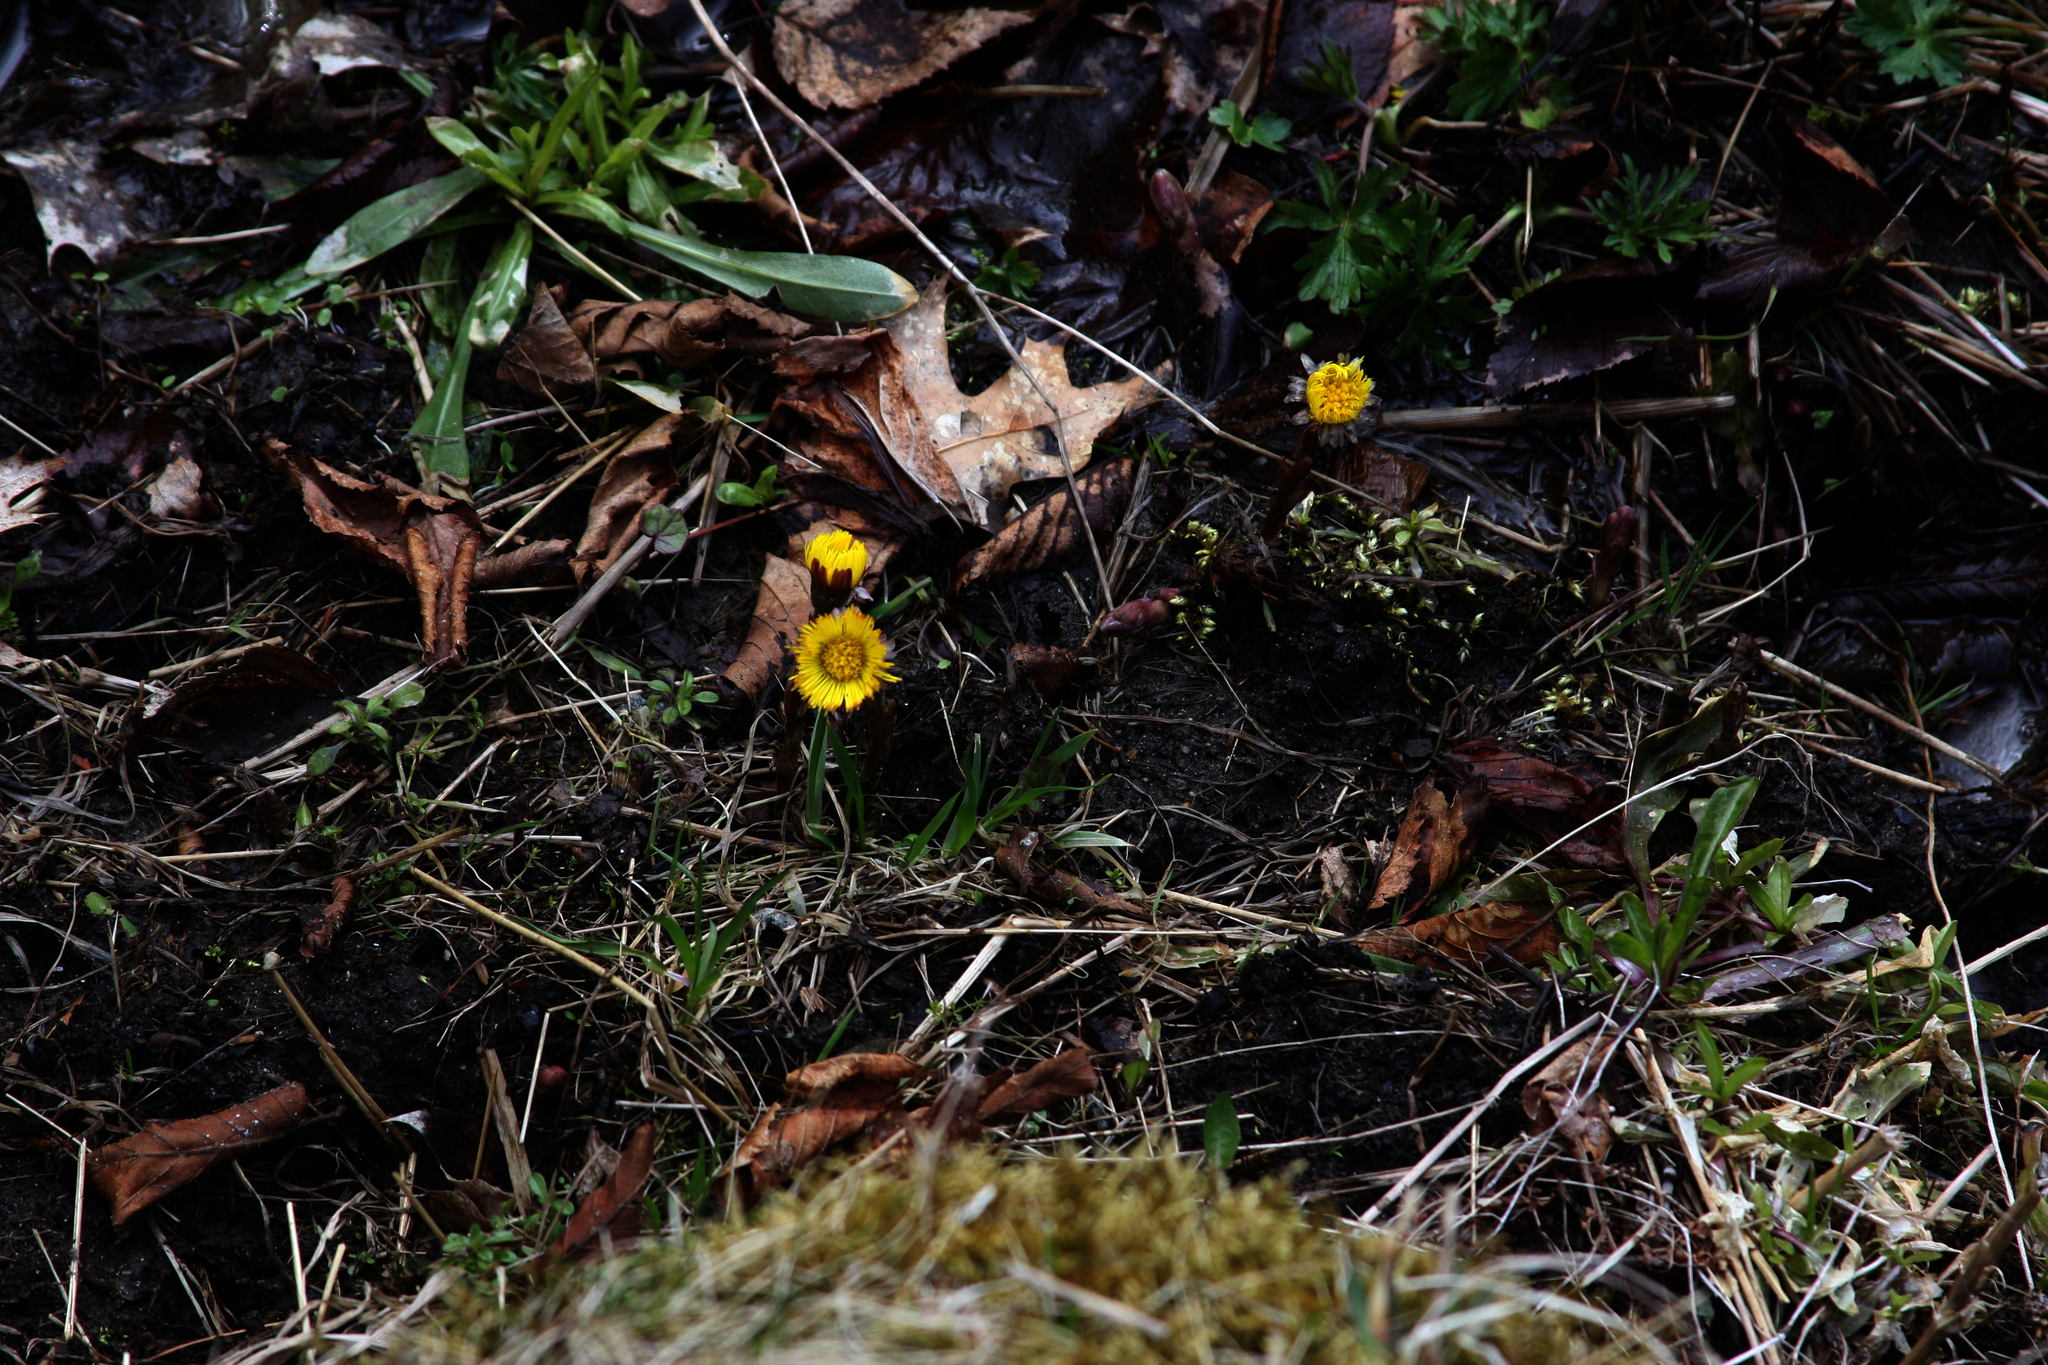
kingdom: Plantae
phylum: Tracheophyta
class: Magnoliopsida
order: Asterales
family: Asteraceae
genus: Tussilago
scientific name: Tussilago farfara
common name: Coltsfoot
